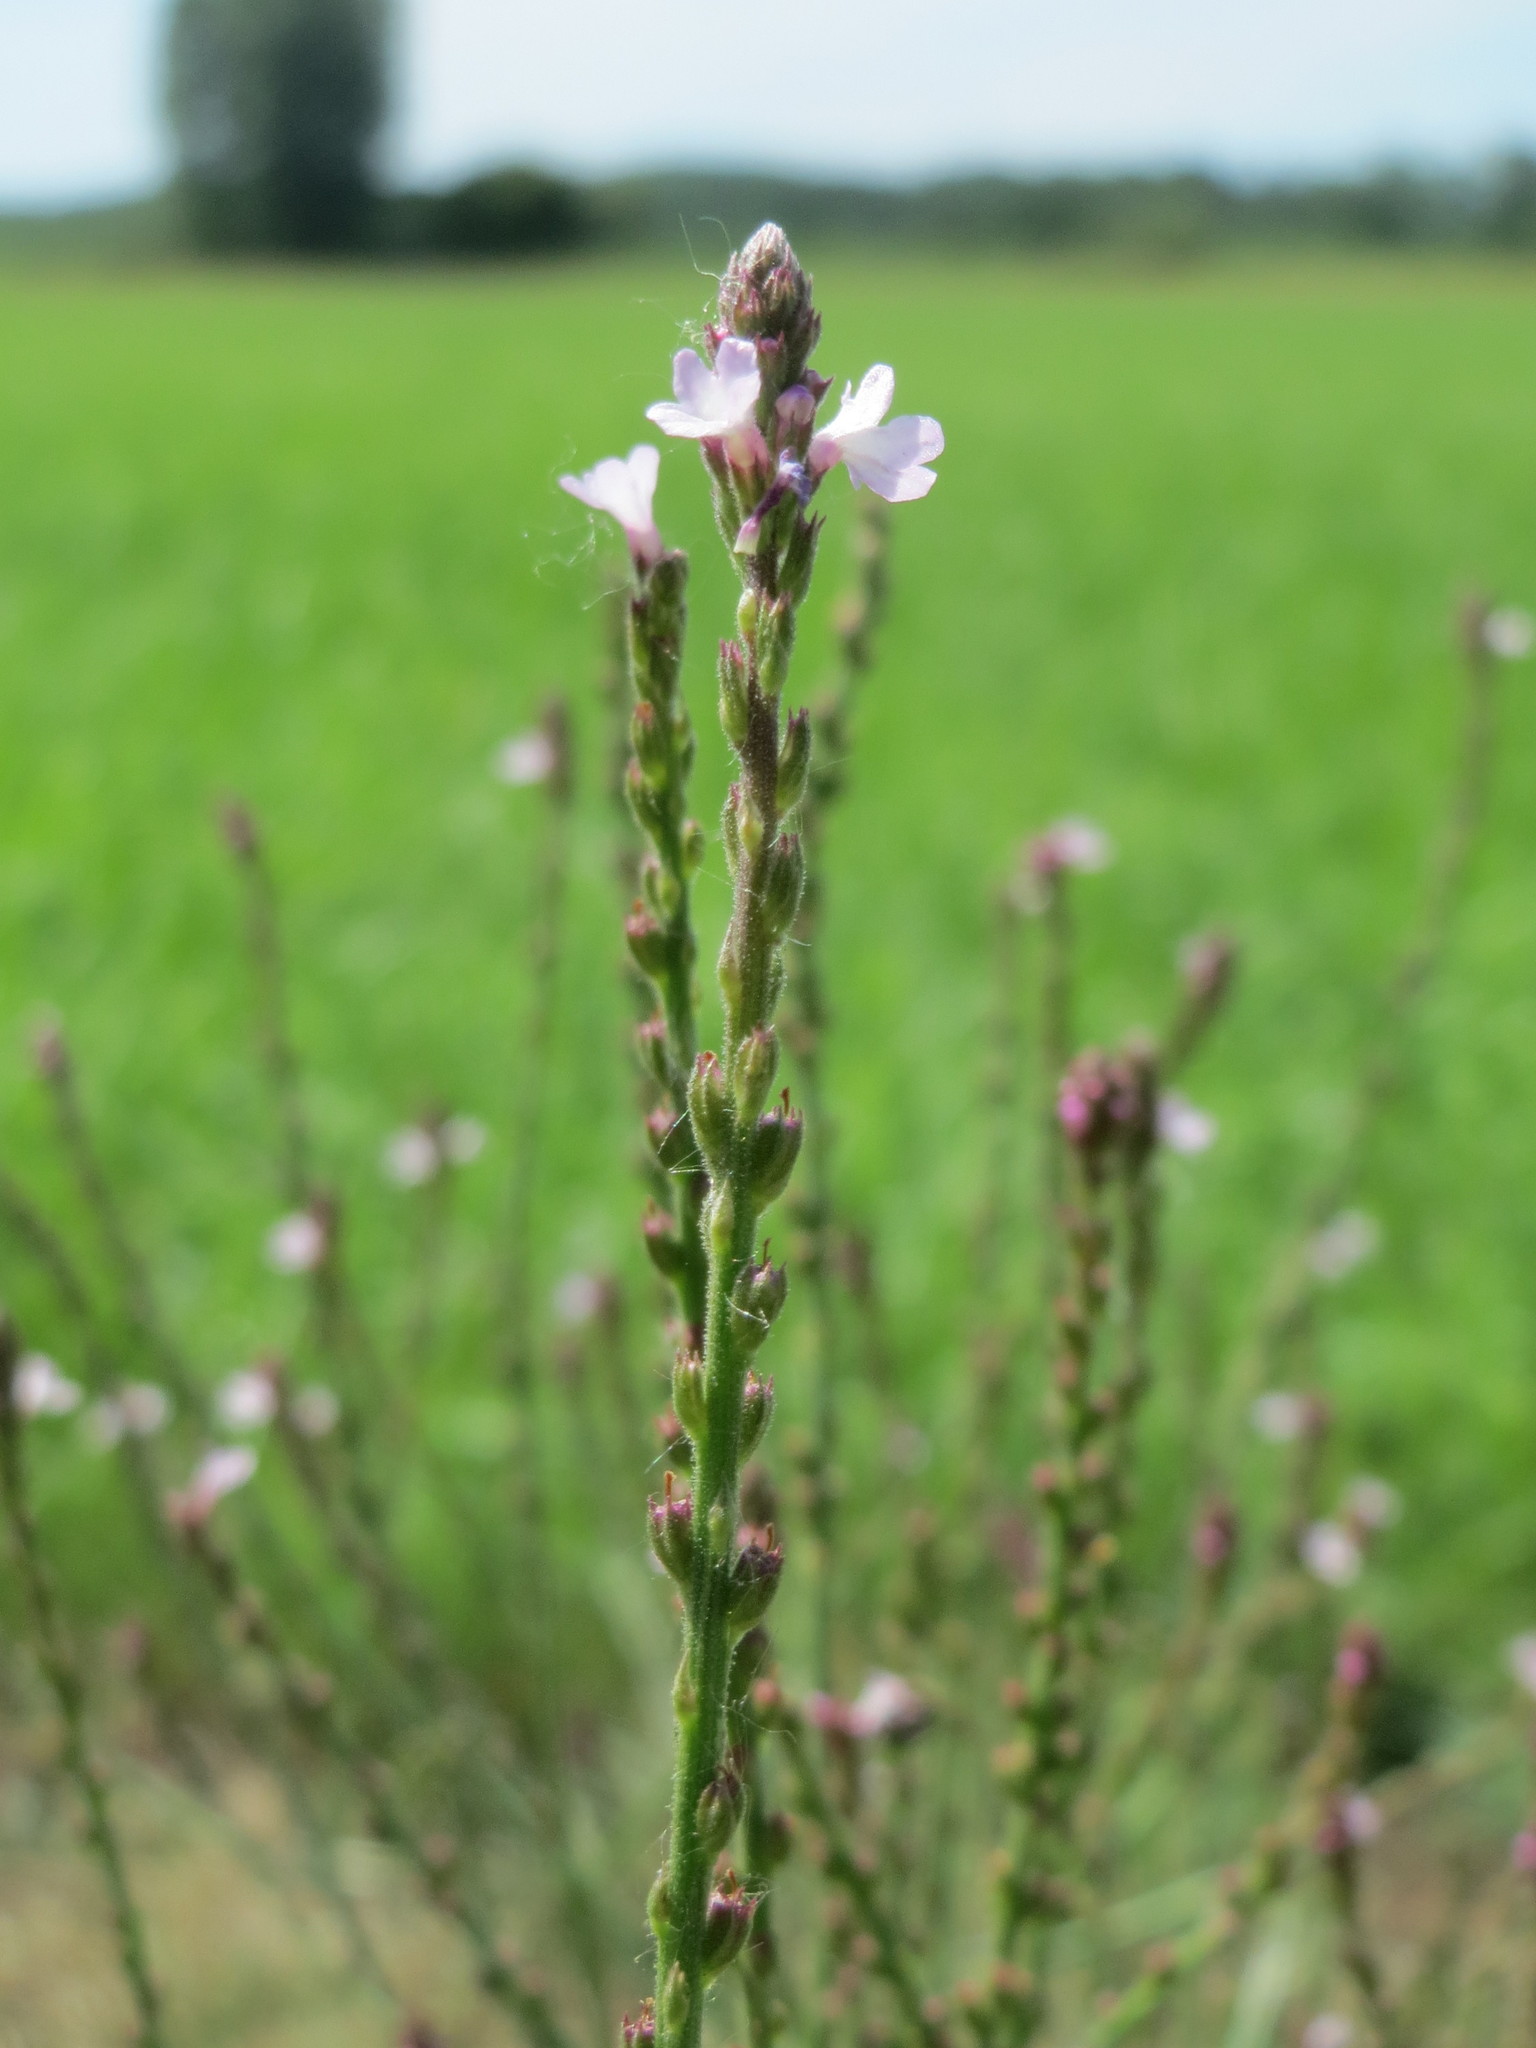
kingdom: Plantae
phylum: Tracheophyta
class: Magnoliopsida
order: Lamiales
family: Verbenaceae
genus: Verbena
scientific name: Verbena officinalis
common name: Vervain
